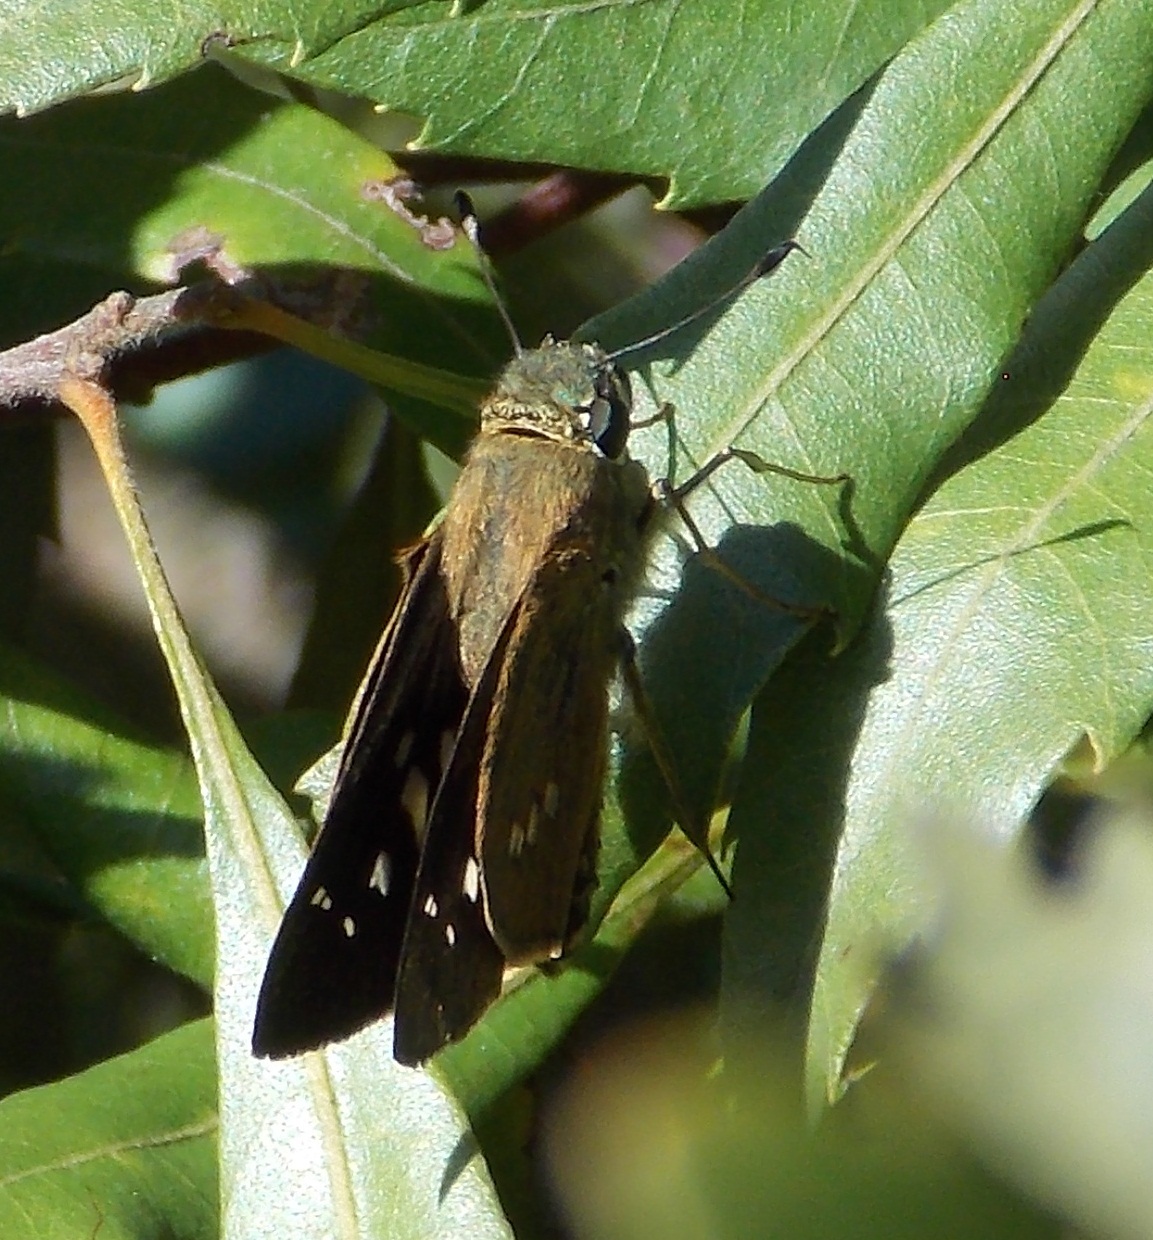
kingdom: Animalia
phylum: Arthropoda
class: Insecta
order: Lepidoptera
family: Hesperiidae
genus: Calpodes
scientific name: Calpodes ethlius
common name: Brazilian skipper
